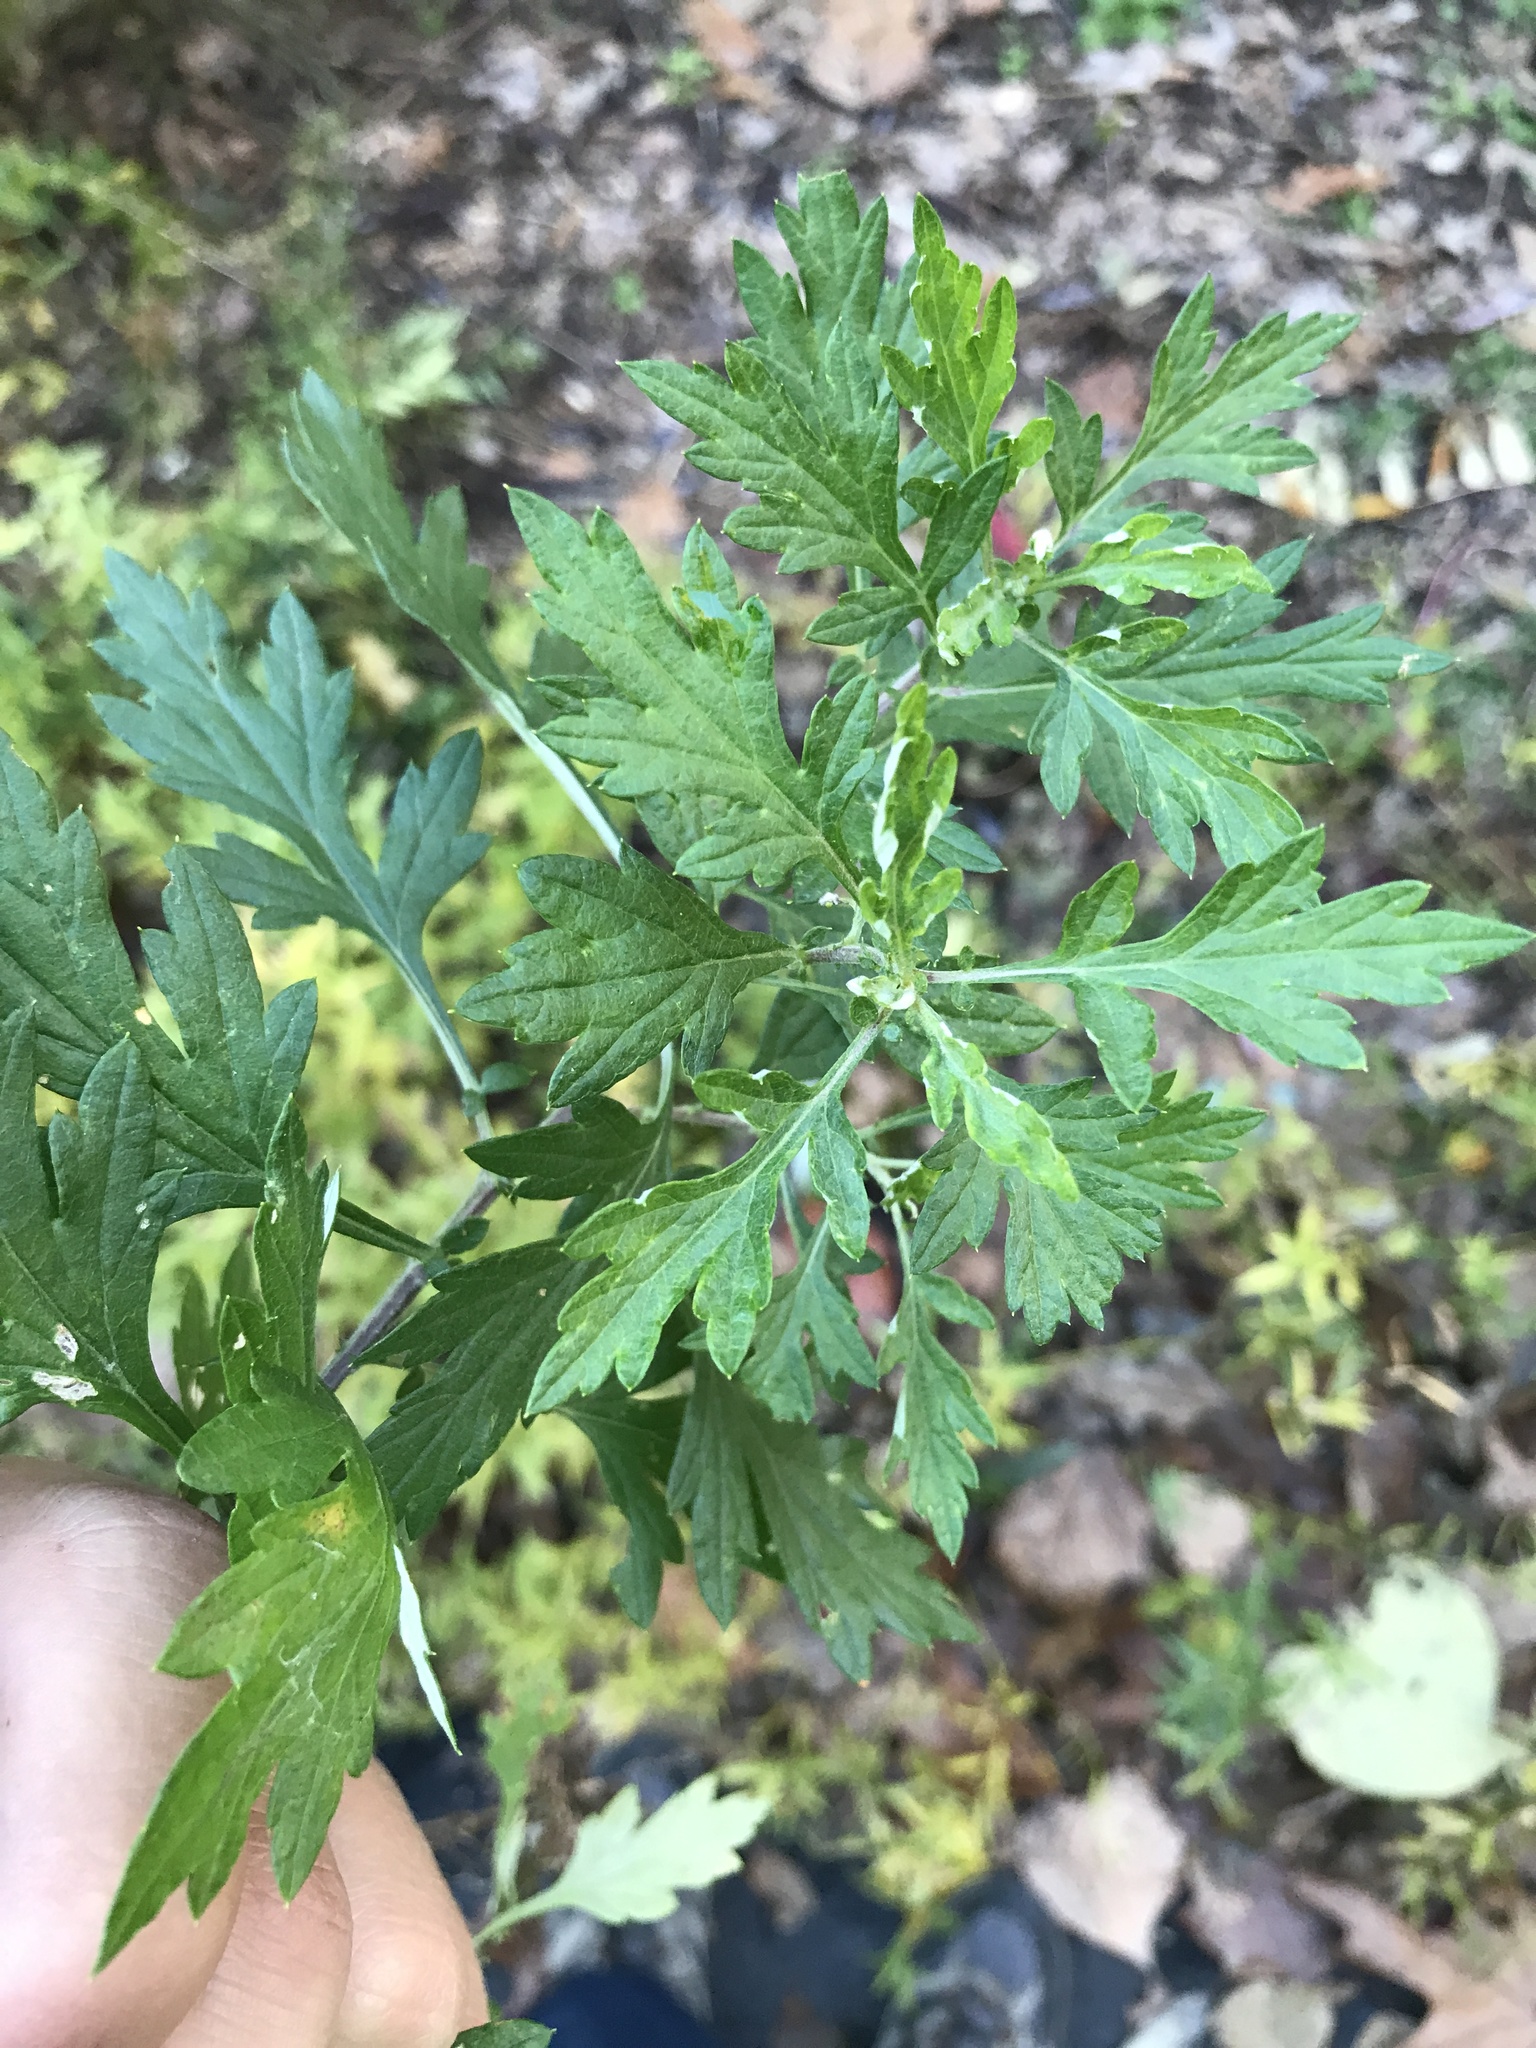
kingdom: Plantae
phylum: Tracheophyta
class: Magnoliopsida
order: Asterales
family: Asteraceae
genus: Artemisia
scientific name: Artemisia vulgaris
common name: Mugwort
